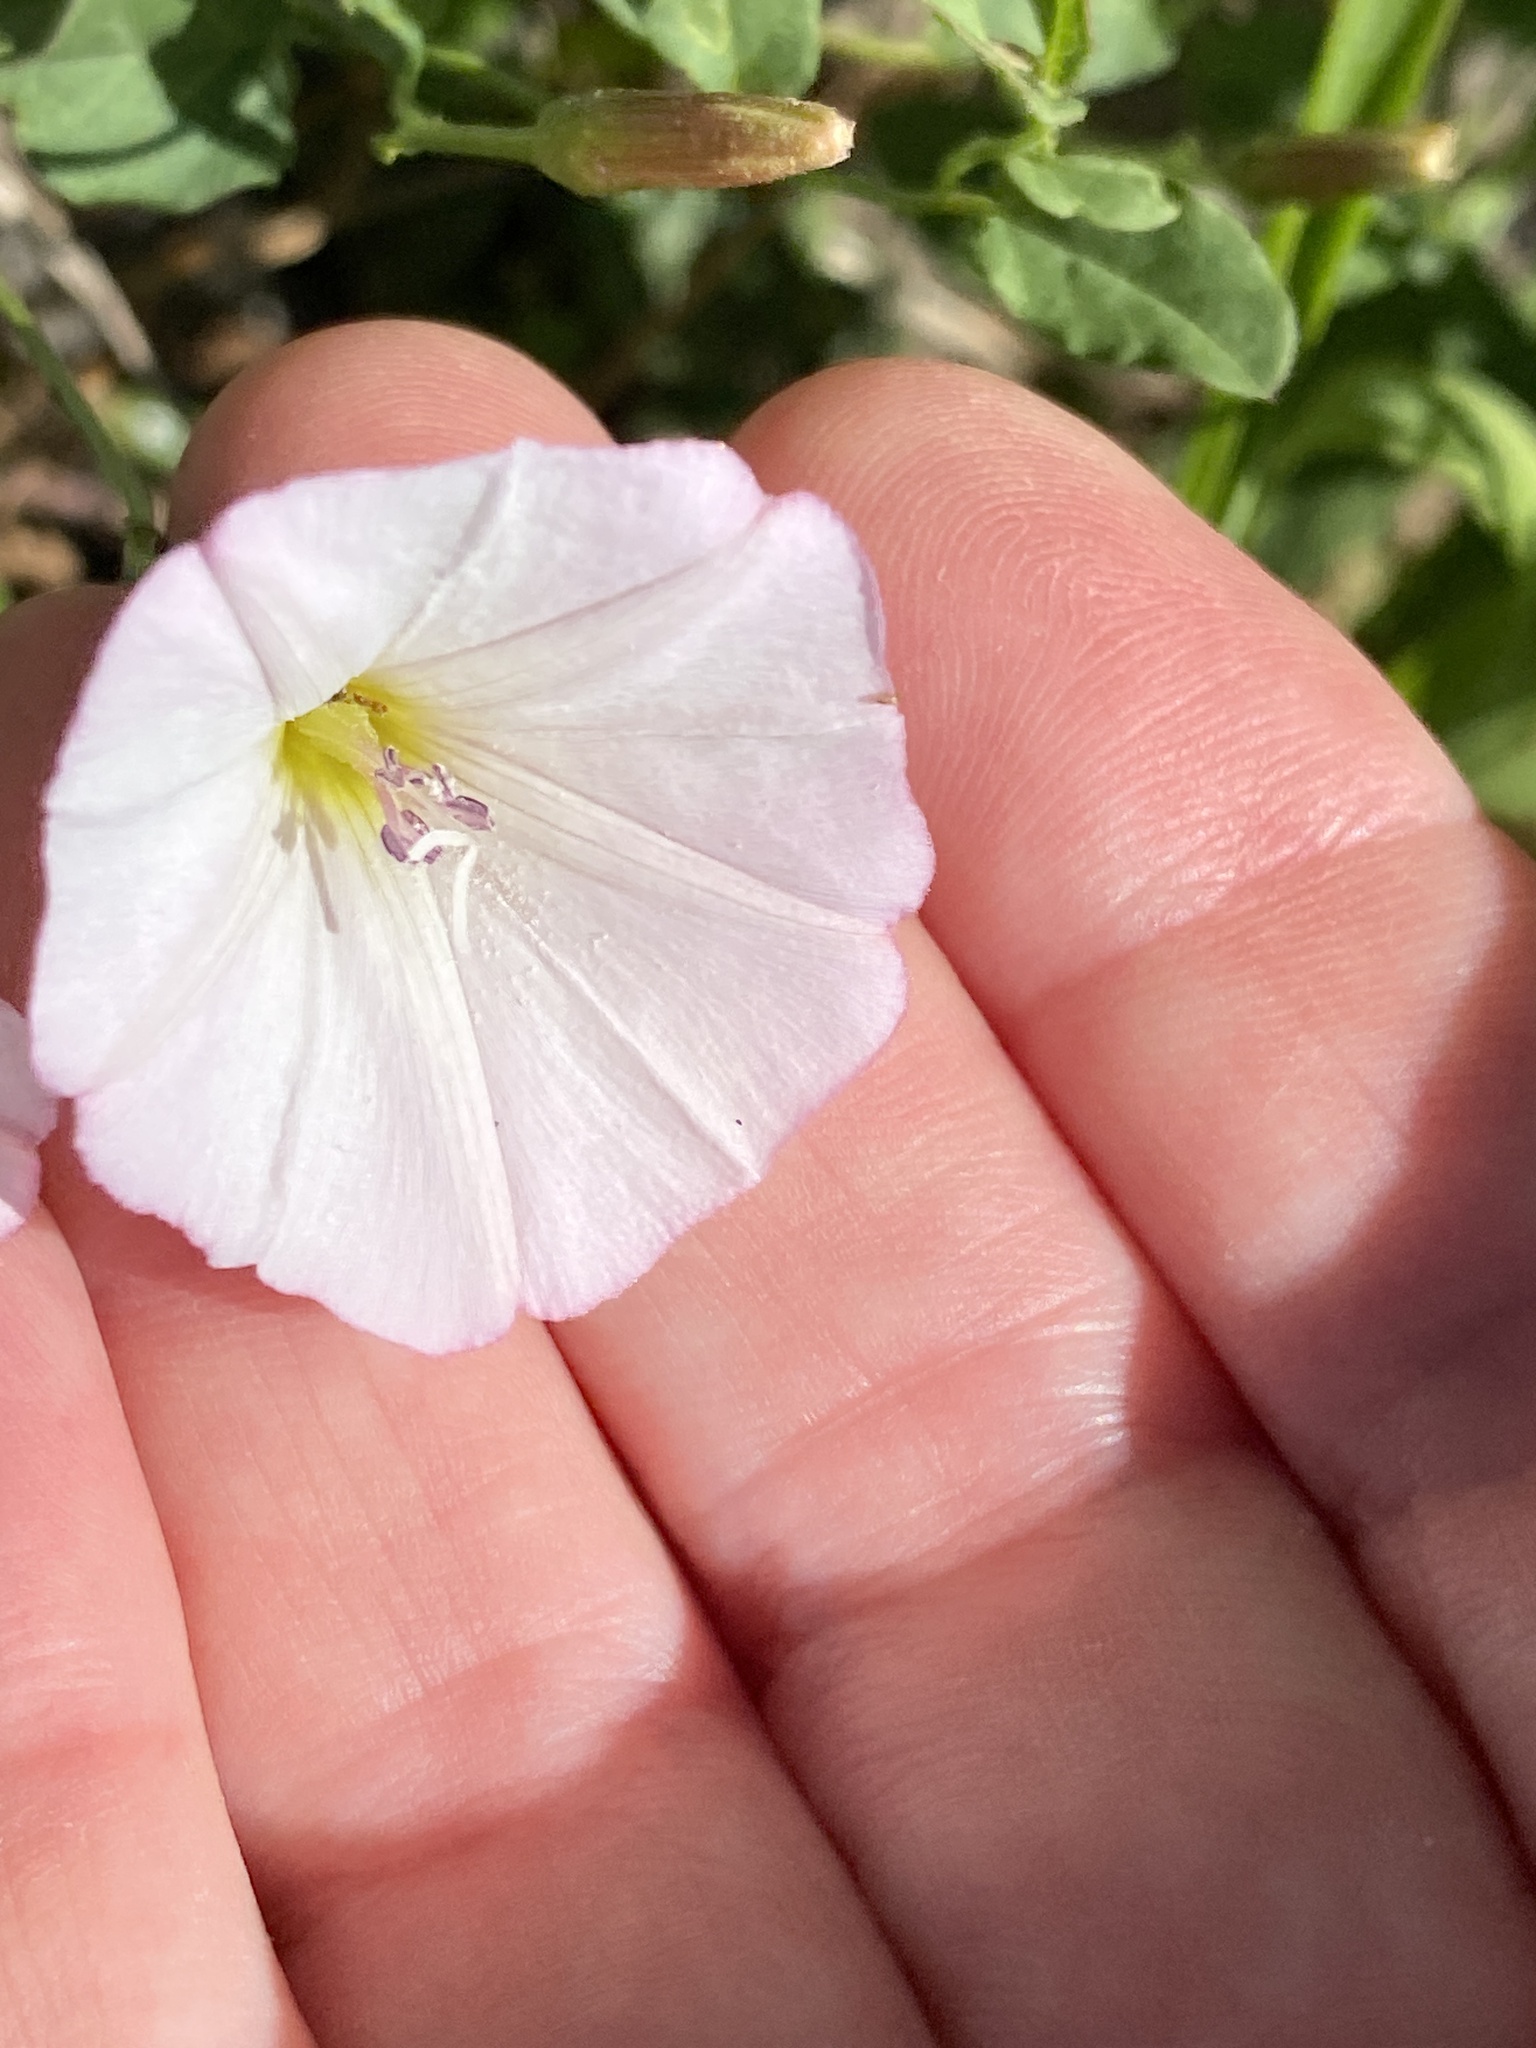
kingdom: Plantae
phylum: Tracheophyta
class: Magnoliopsida
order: Solanales
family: Convolvulaceae
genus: Convolvulus
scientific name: Convolvulus arvensis
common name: Field bindweed
